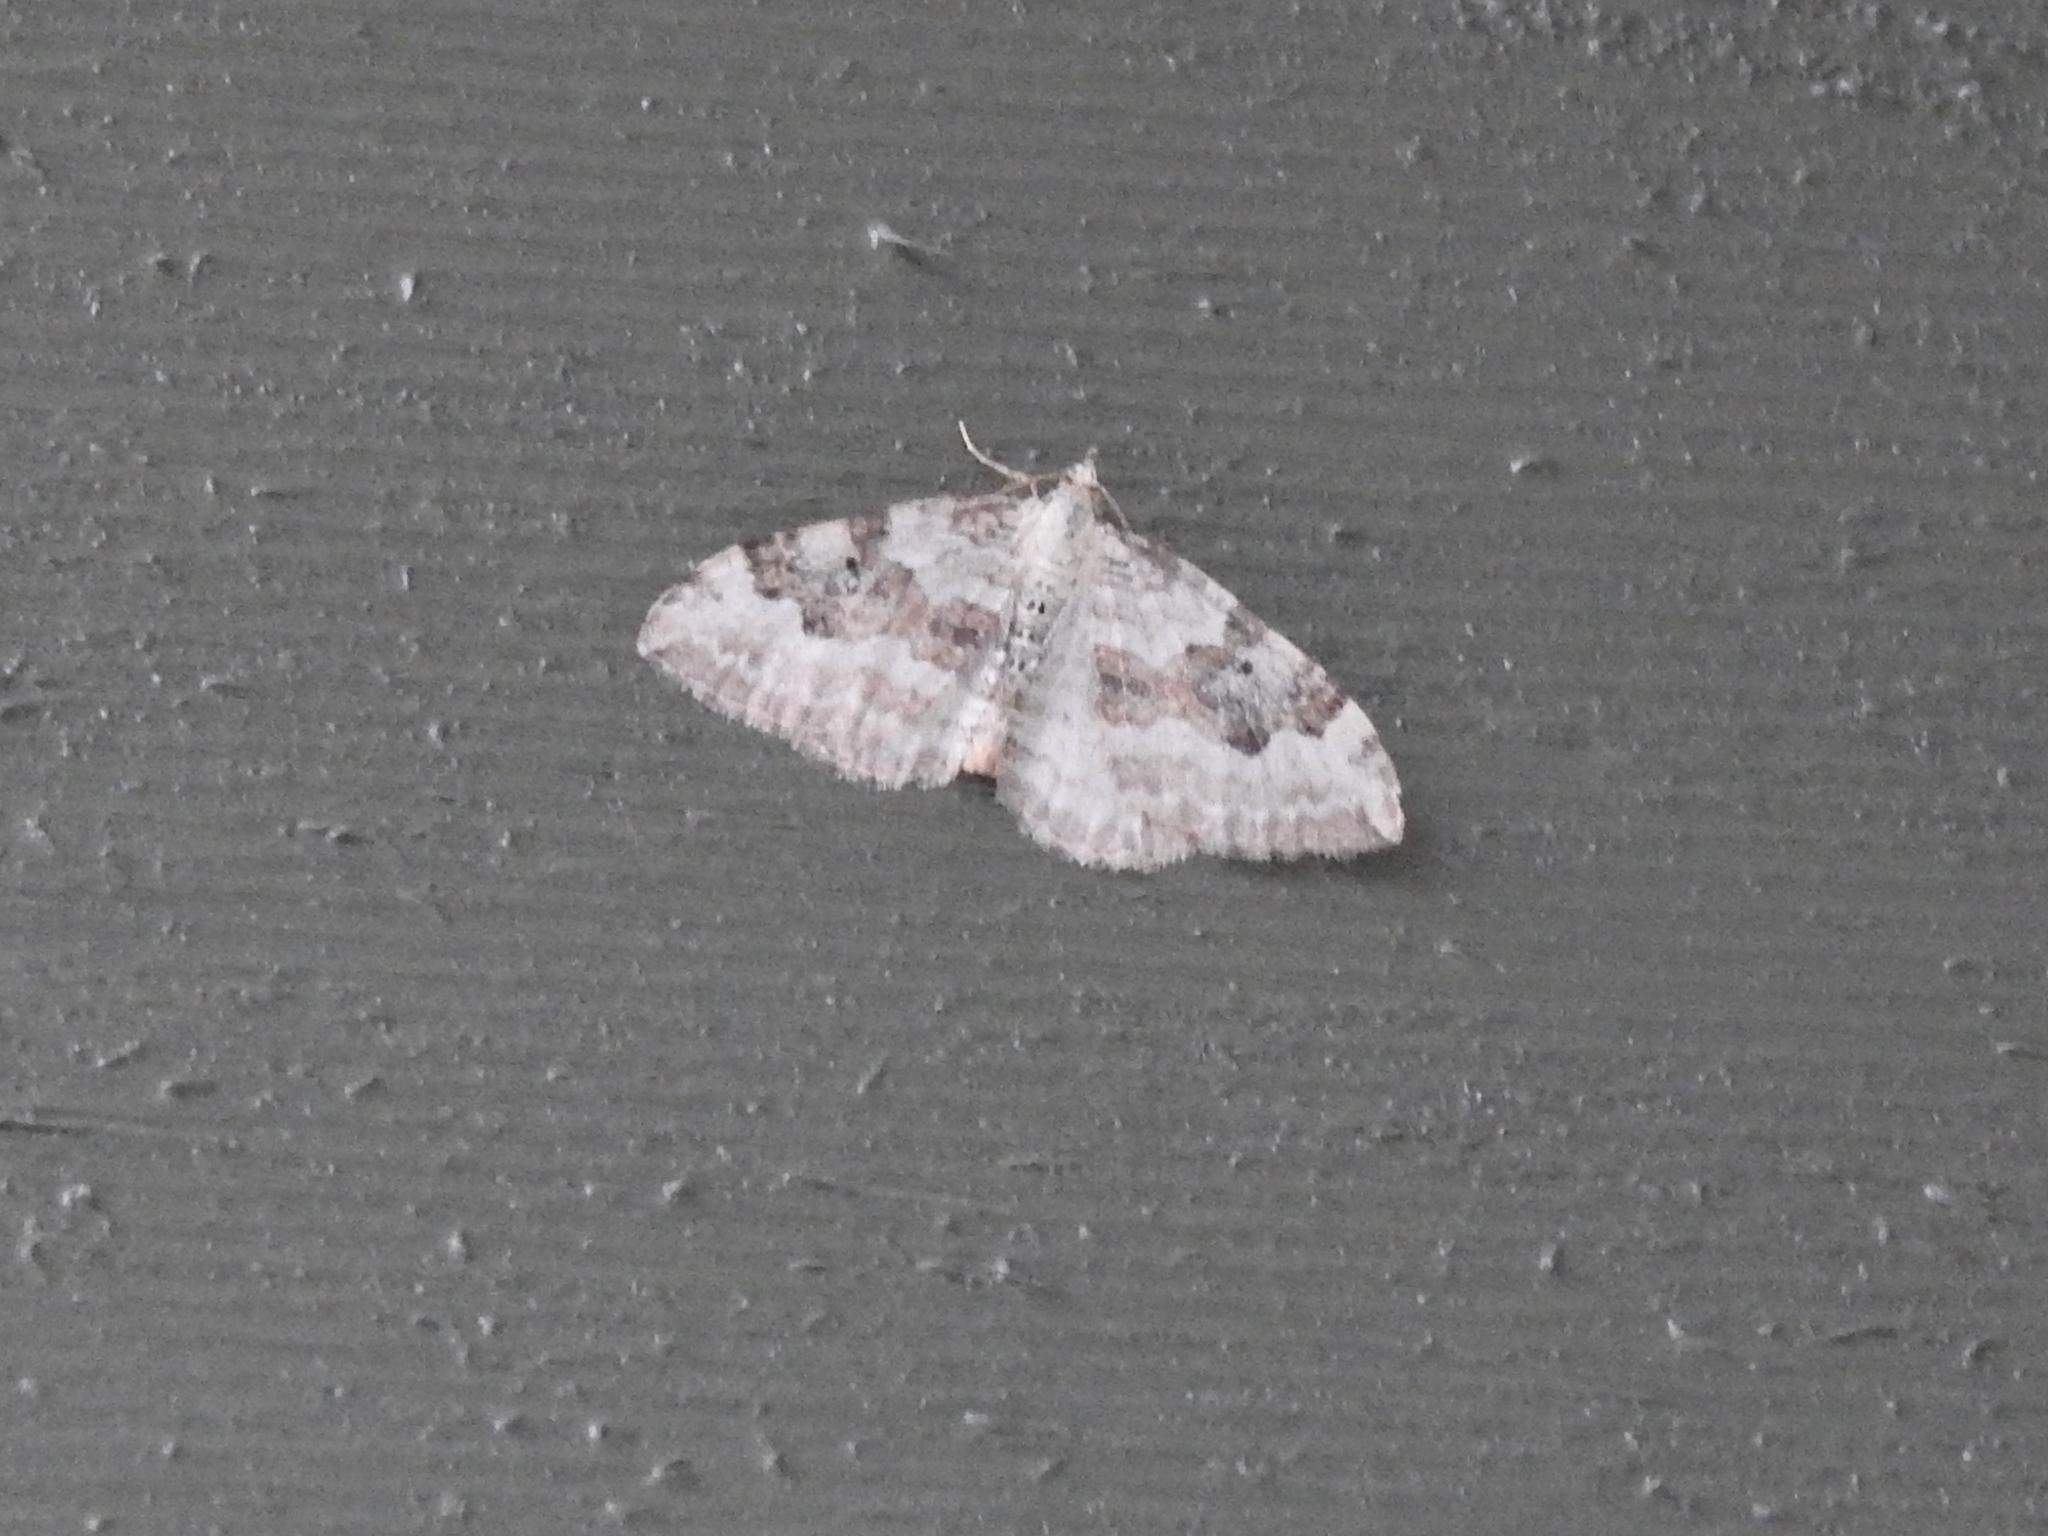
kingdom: Animalia
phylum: Arthropoda
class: Insecta
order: Lepidoptera
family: Geometridae
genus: Xanthorhoe
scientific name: Xanthorhoe montanata
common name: Silver-ground carpet
